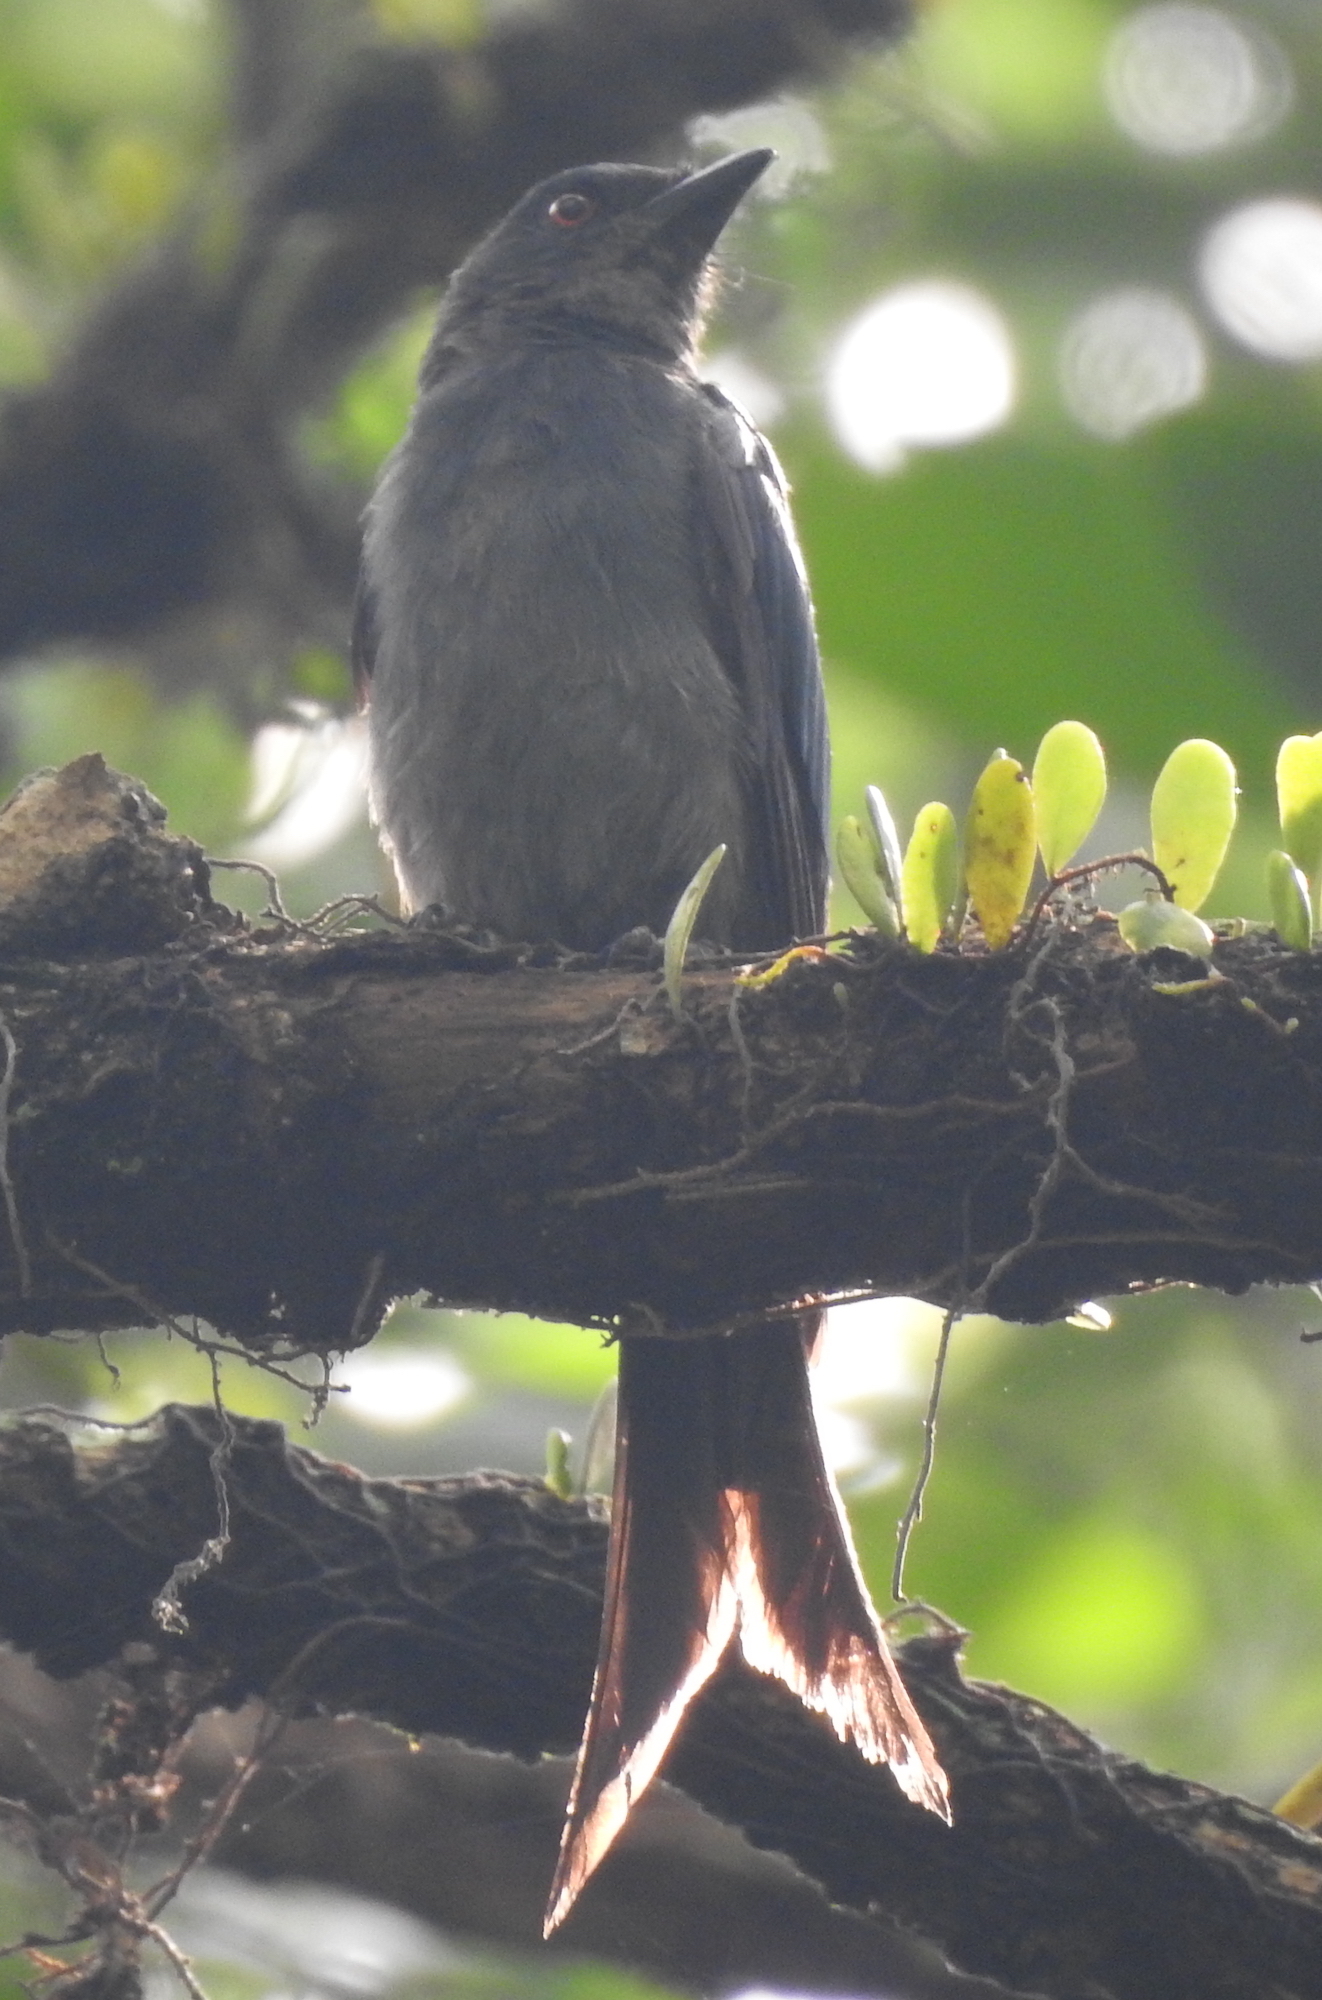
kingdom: Animalia
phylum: Chordata
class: Aves
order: Passeriformes
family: Dicruridae
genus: Dicrurus
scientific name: Dicrurus leucophaeus
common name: Ashy drongo
